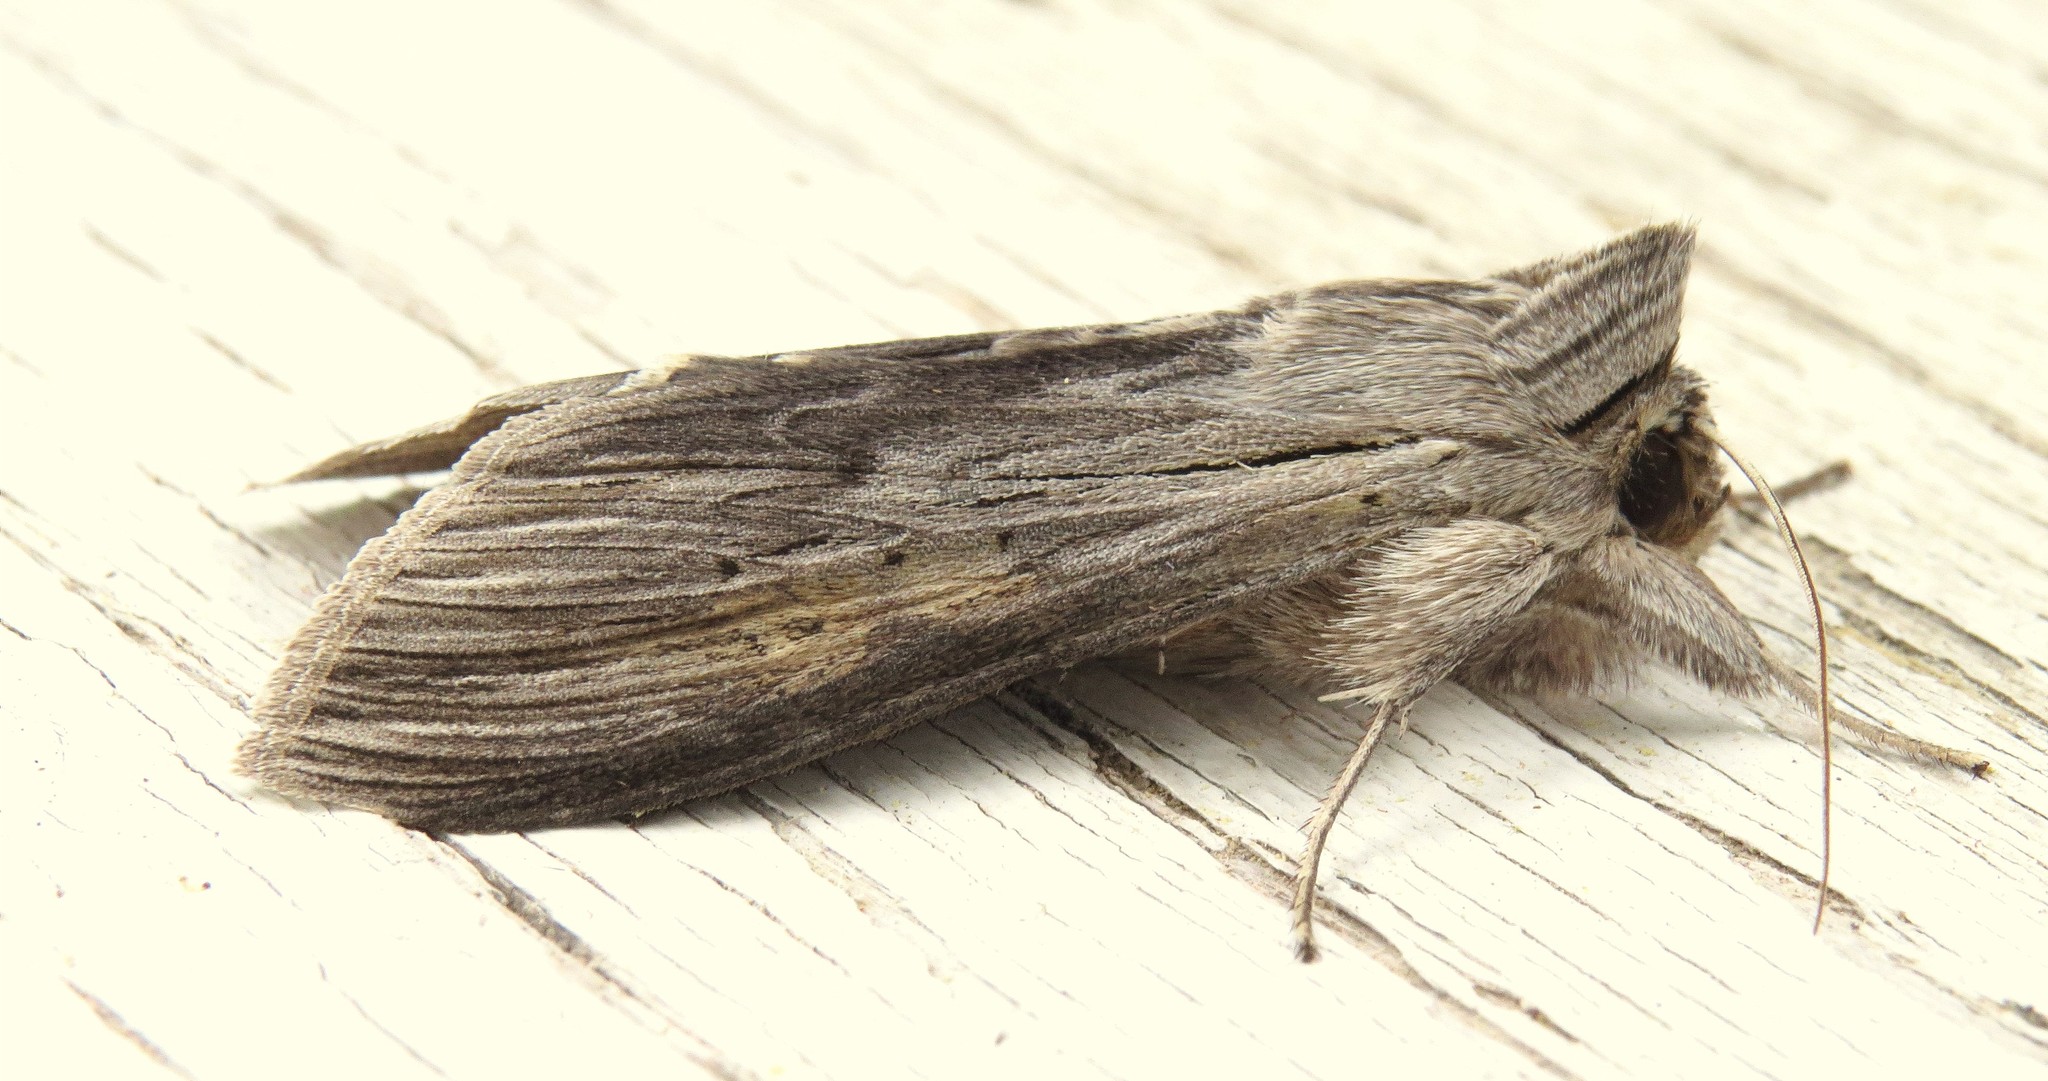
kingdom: Animalia
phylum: Arthropoda
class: Insecta
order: Lepidoptera
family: Noctuidae
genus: Cucullia
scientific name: Cucullia umbratica
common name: Shark
